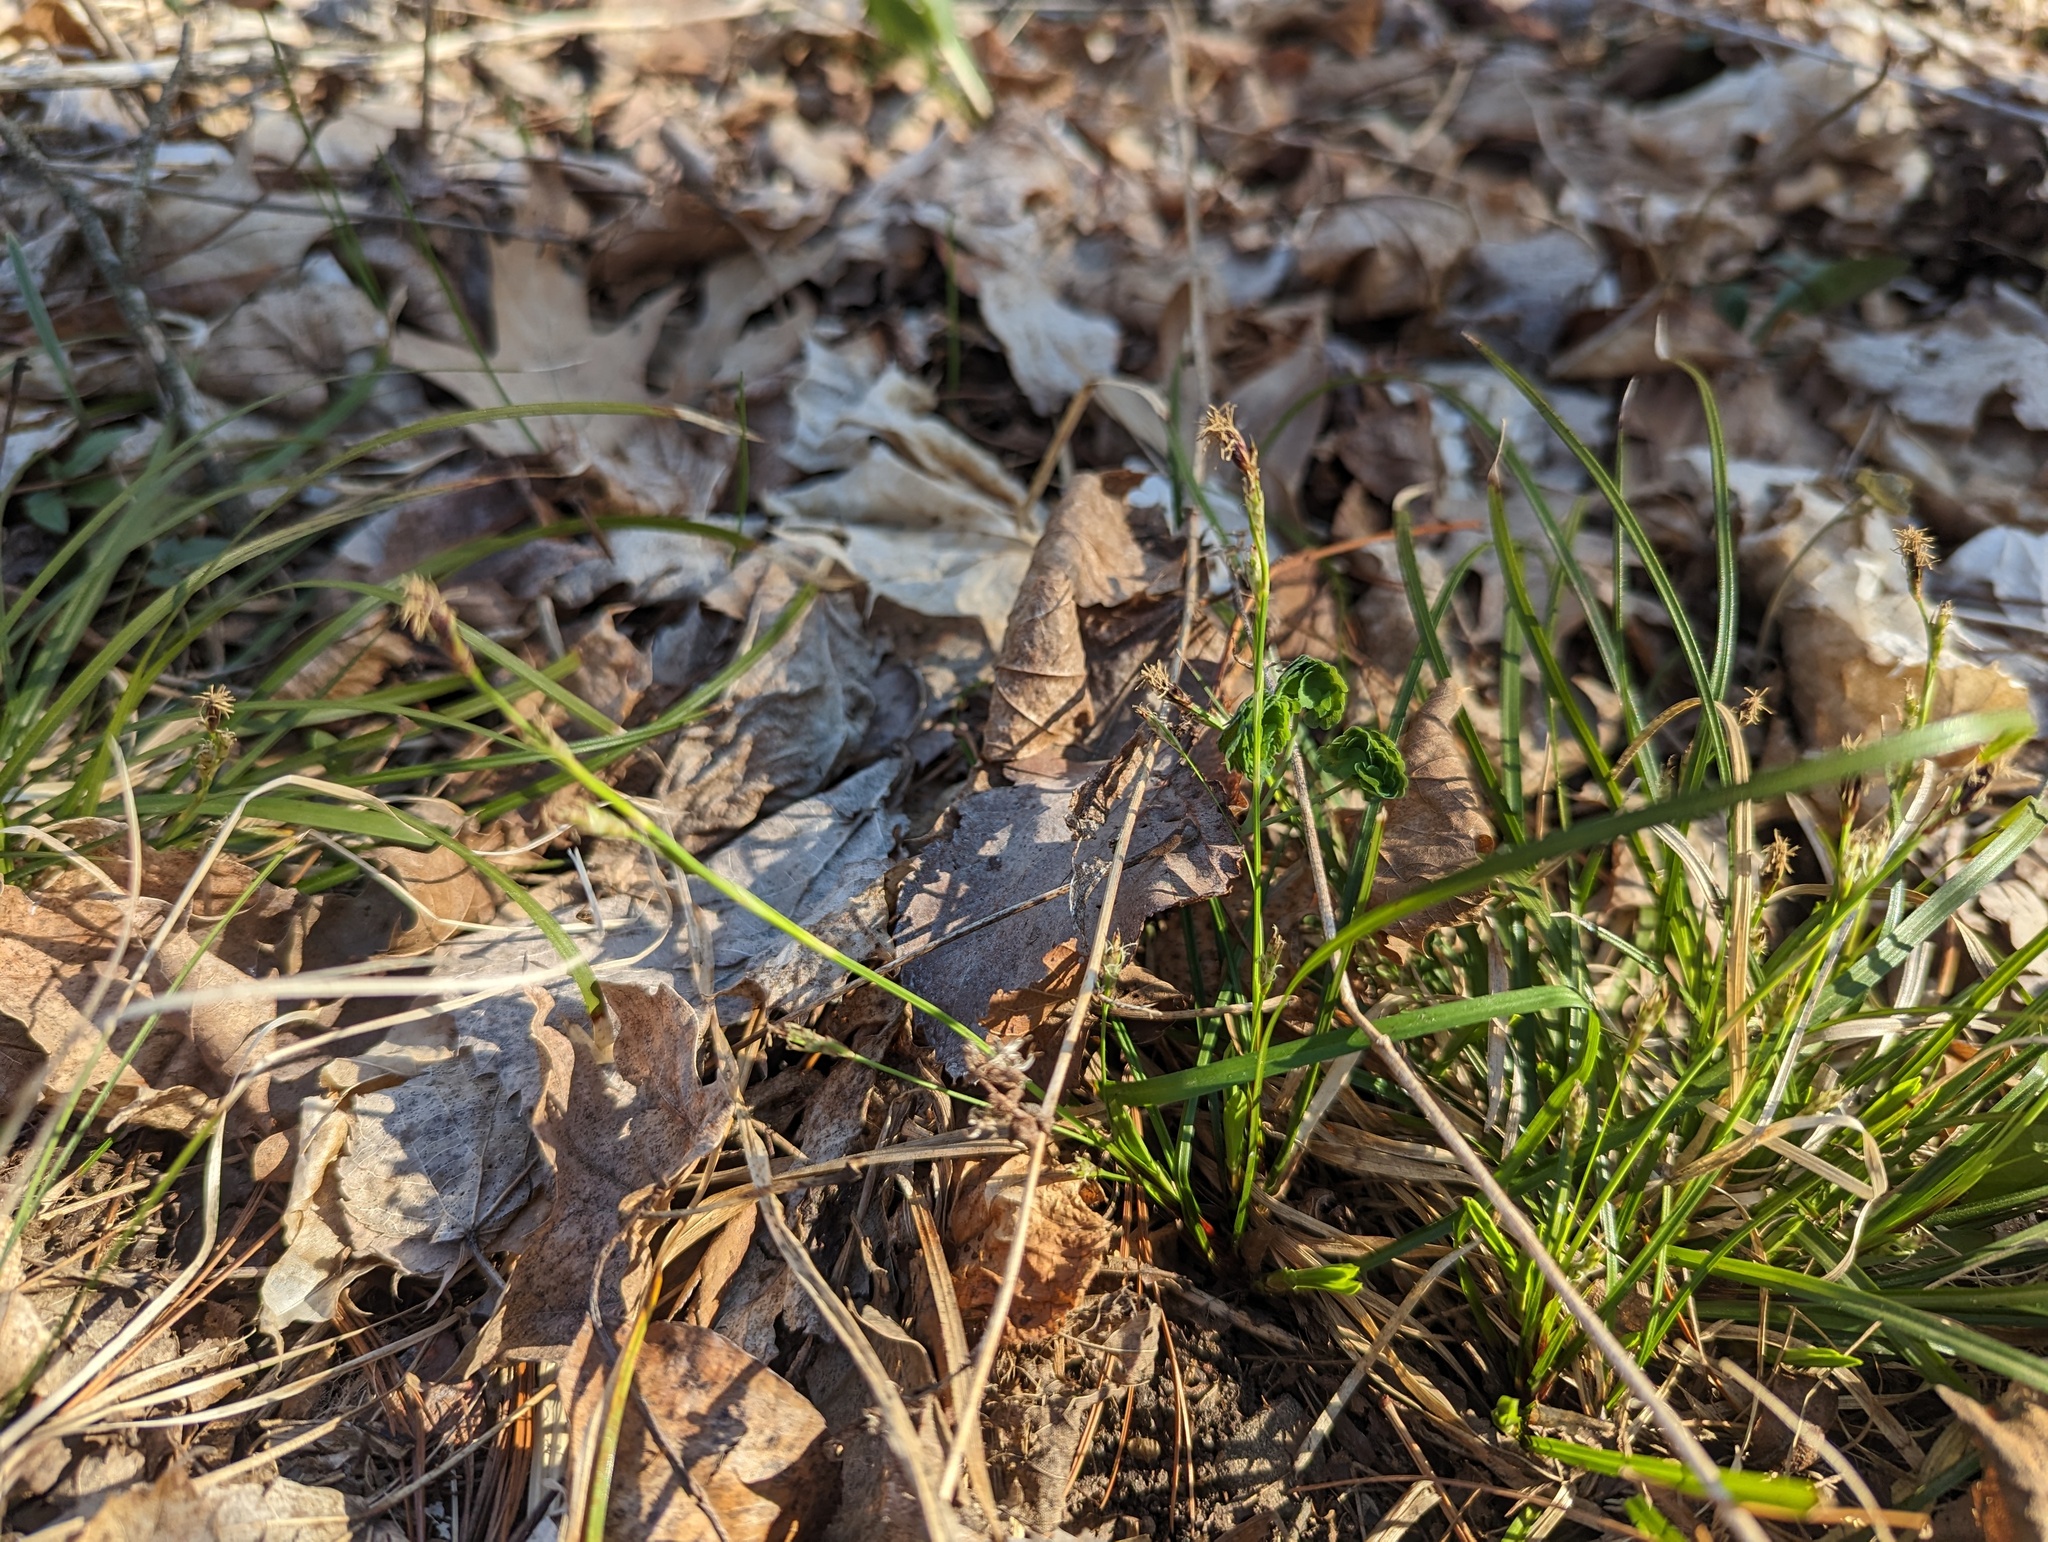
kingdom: Plantae
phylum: Tracheophyta
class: Liliopsida
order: Poales
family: Cyperaceae
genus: Carex
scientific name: Carex pedunculata
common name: Pedunculate sedge
